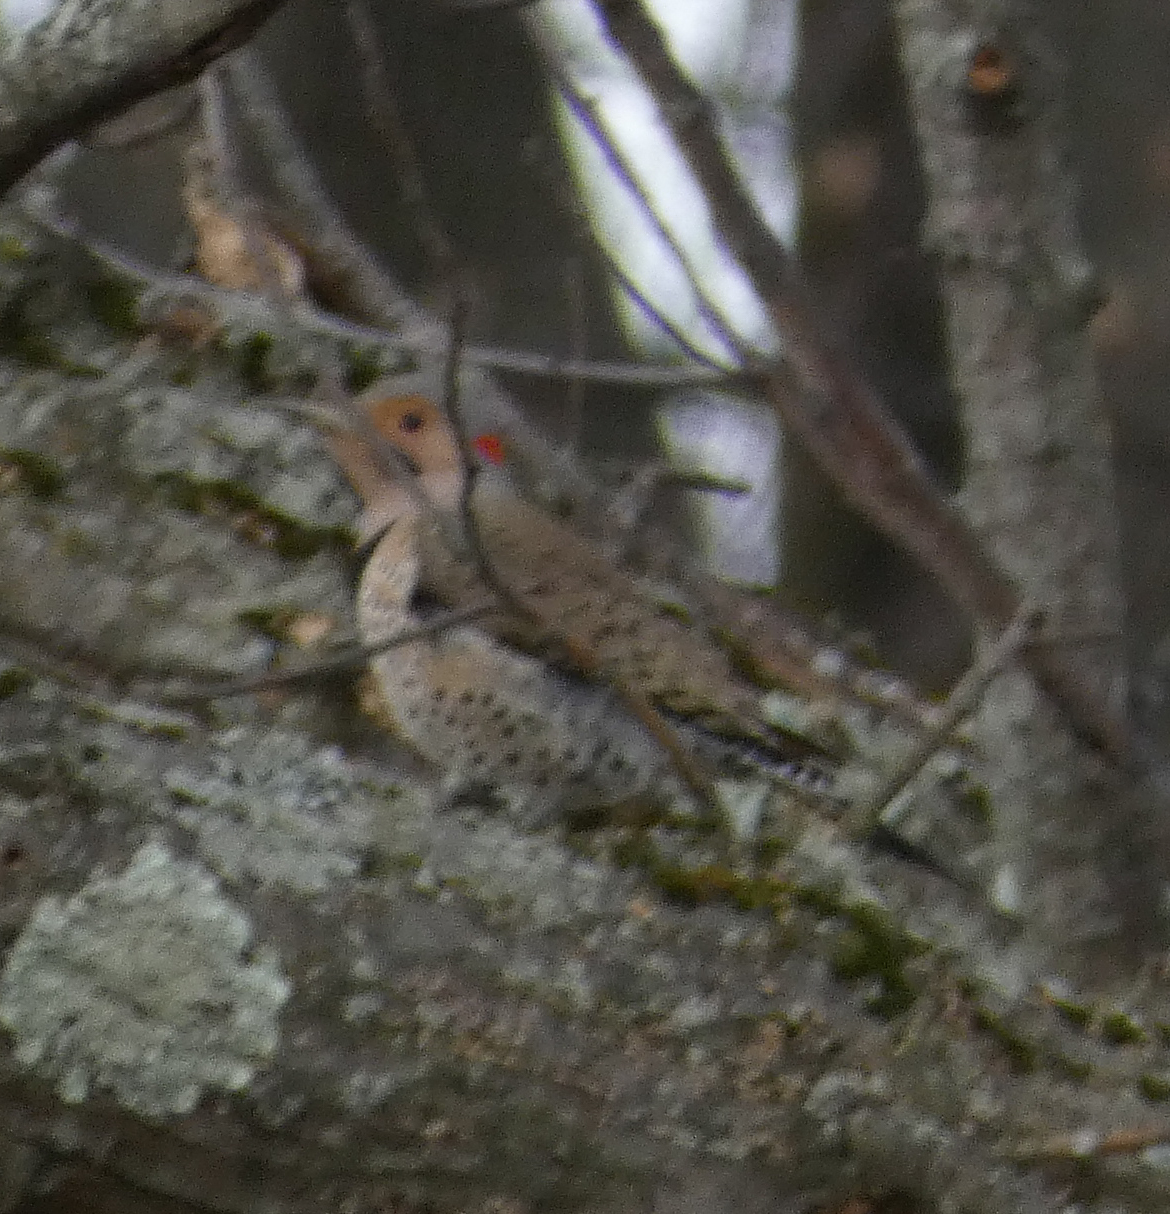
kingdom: Animalia
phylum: Chordata
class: Aves
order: Piciformes
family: Picidae
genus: Colaptes
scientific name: Colaptes auratus
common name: Northern flicker
